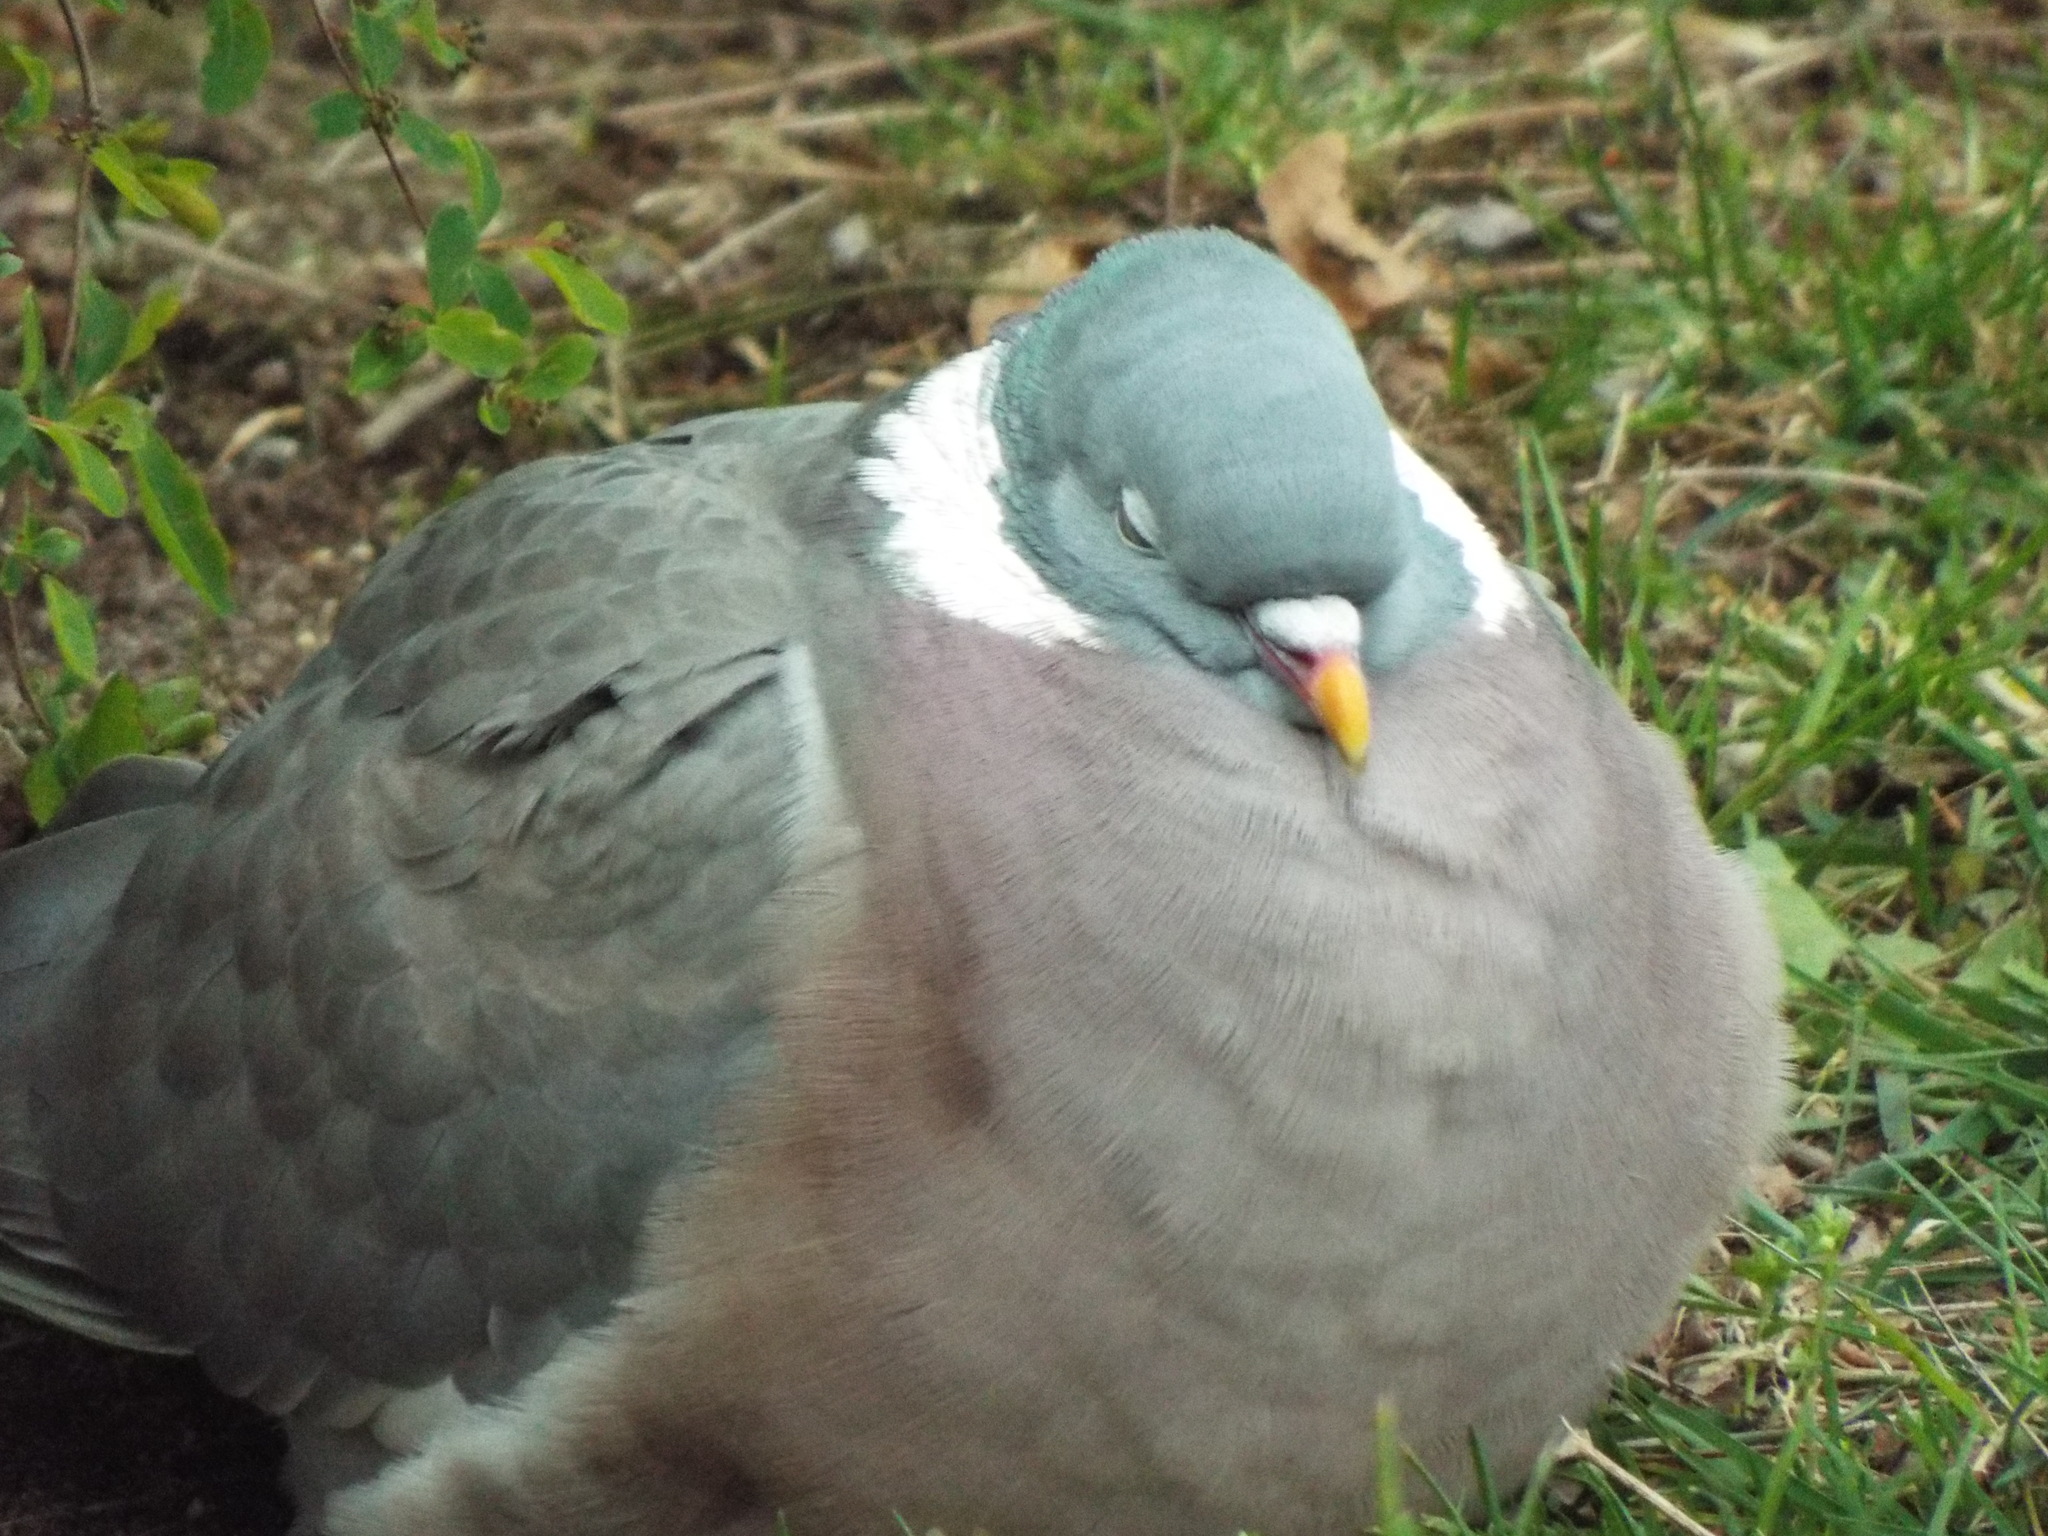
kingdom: Animalia
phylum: Chordata
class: Aves
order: Columbiformes
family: Columbidae
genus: Columba
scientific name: Columba palumbus
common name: Common wood pigeon
